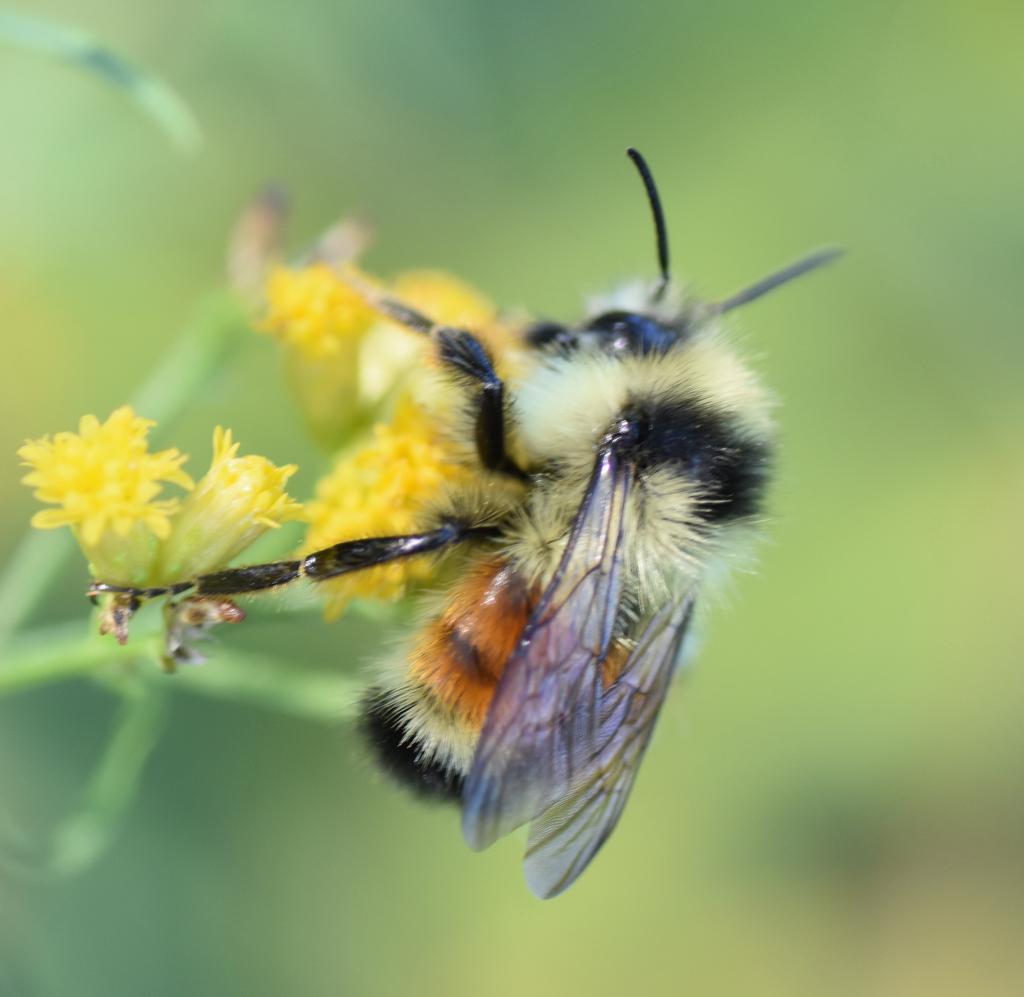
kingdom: Animalia
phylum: Arthropoda
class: Insecta
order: Hymenoptera
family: Apidae
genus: Bombus
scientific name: Bombus ternarius
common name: Tri-colored bumble bee
